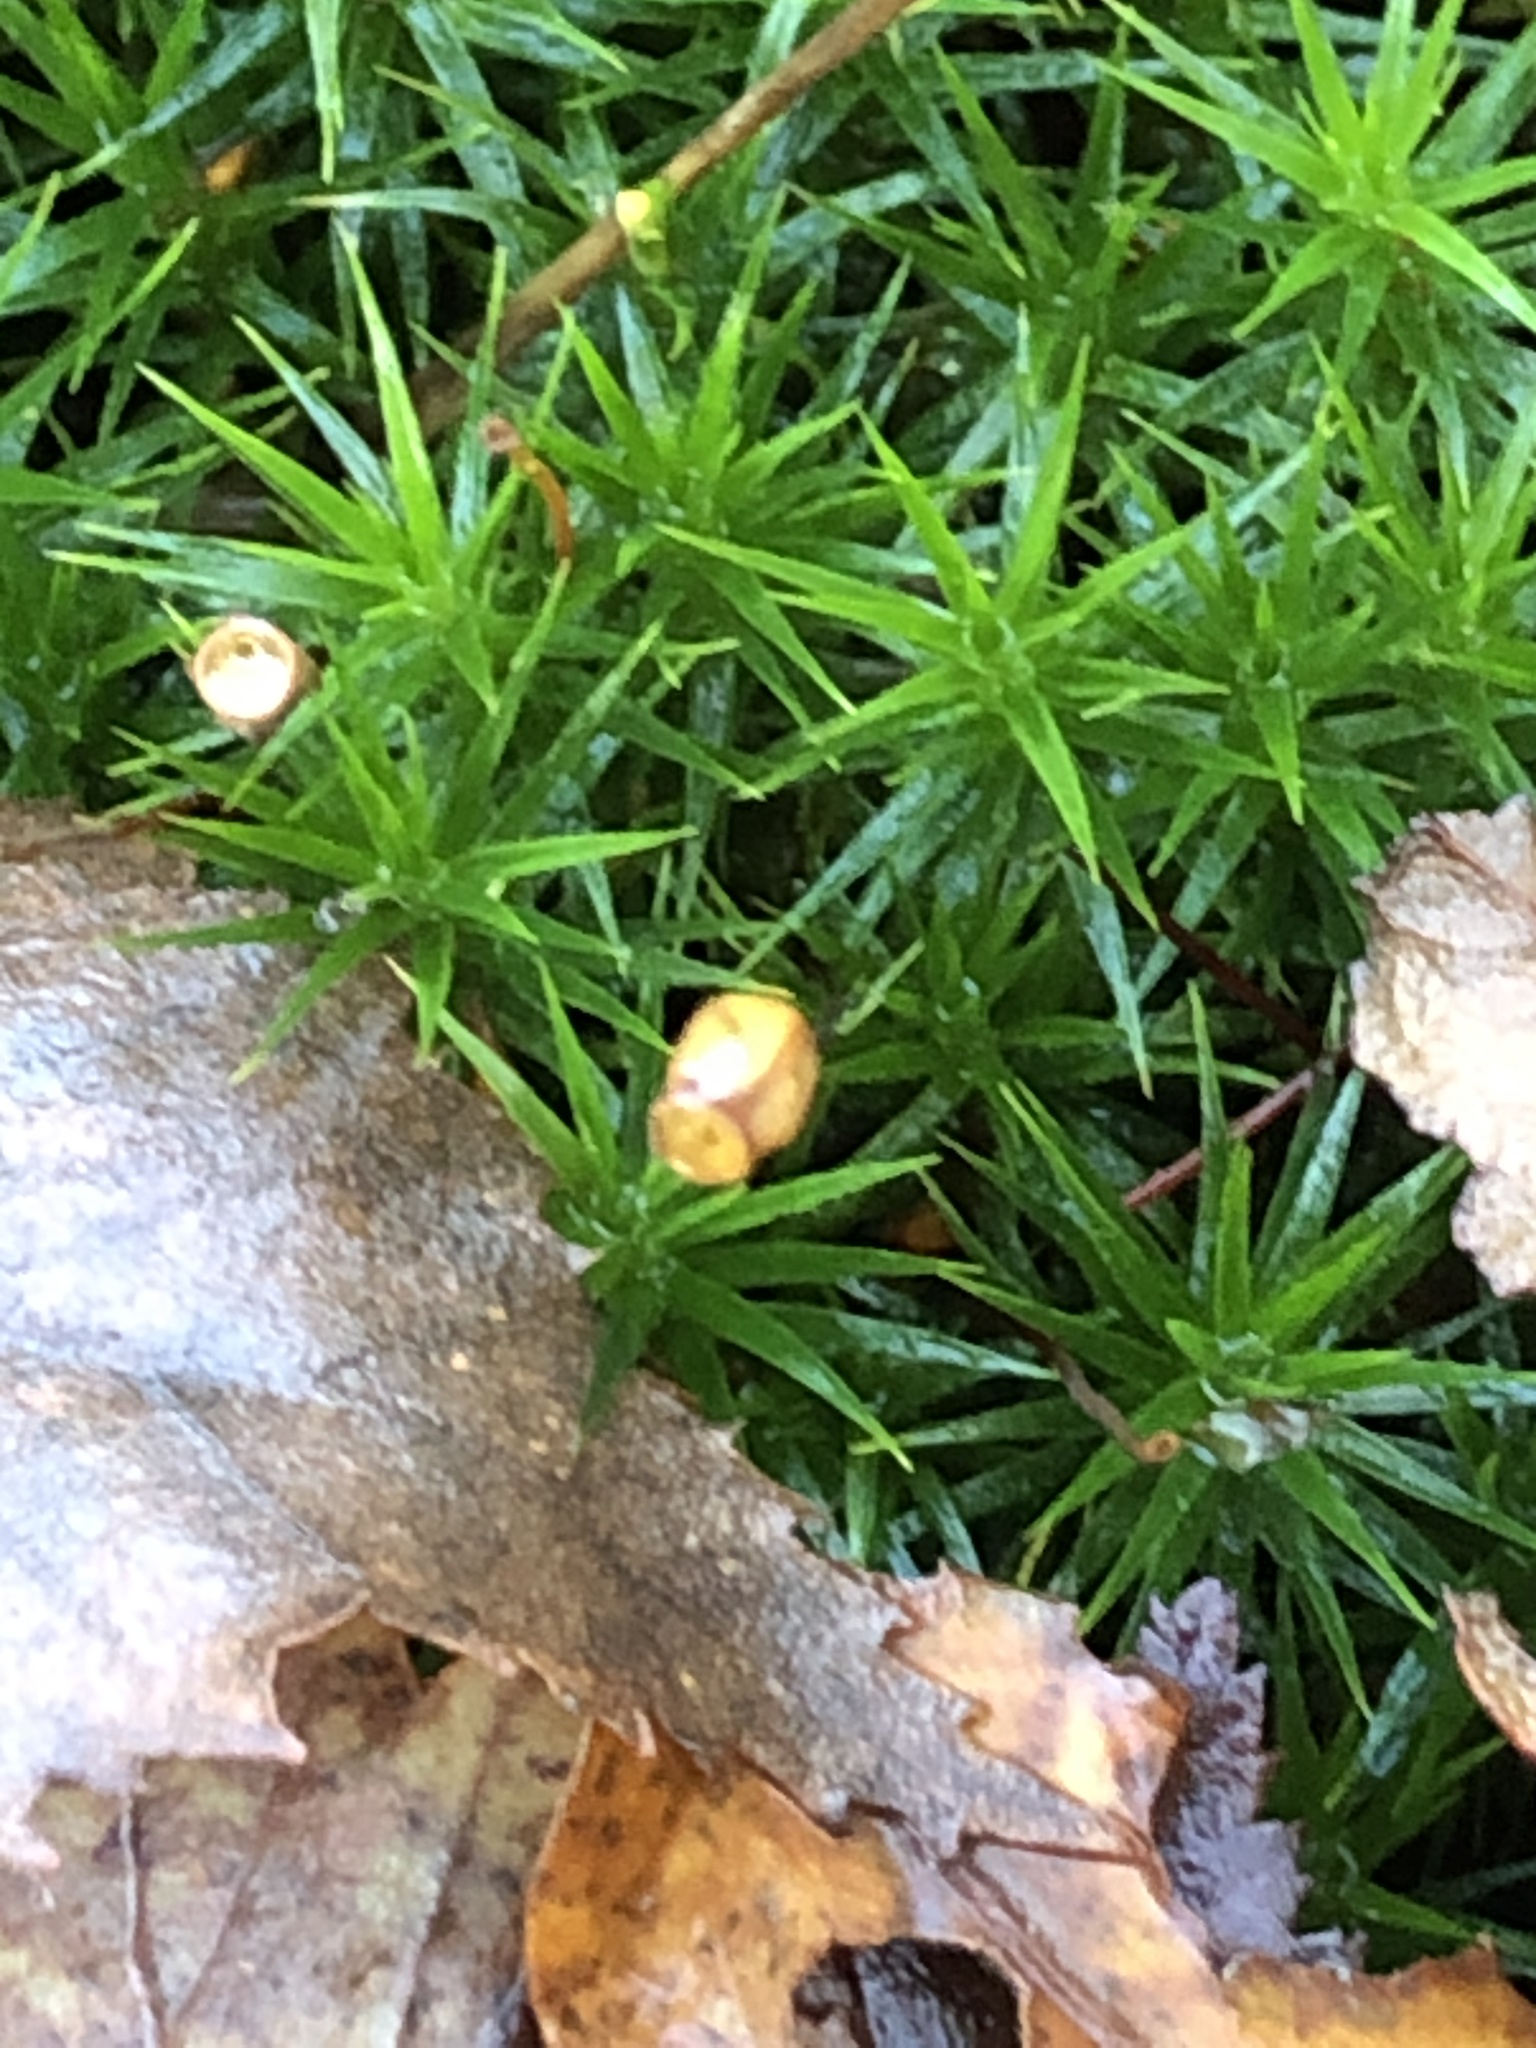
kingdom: Plantae
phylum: Bryophyta
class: Polytrichopsida
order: Polytrichales
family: Polytrichaceae
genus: Polytrichum
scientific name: Polytrichum formosum
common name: Bank haircap moss
